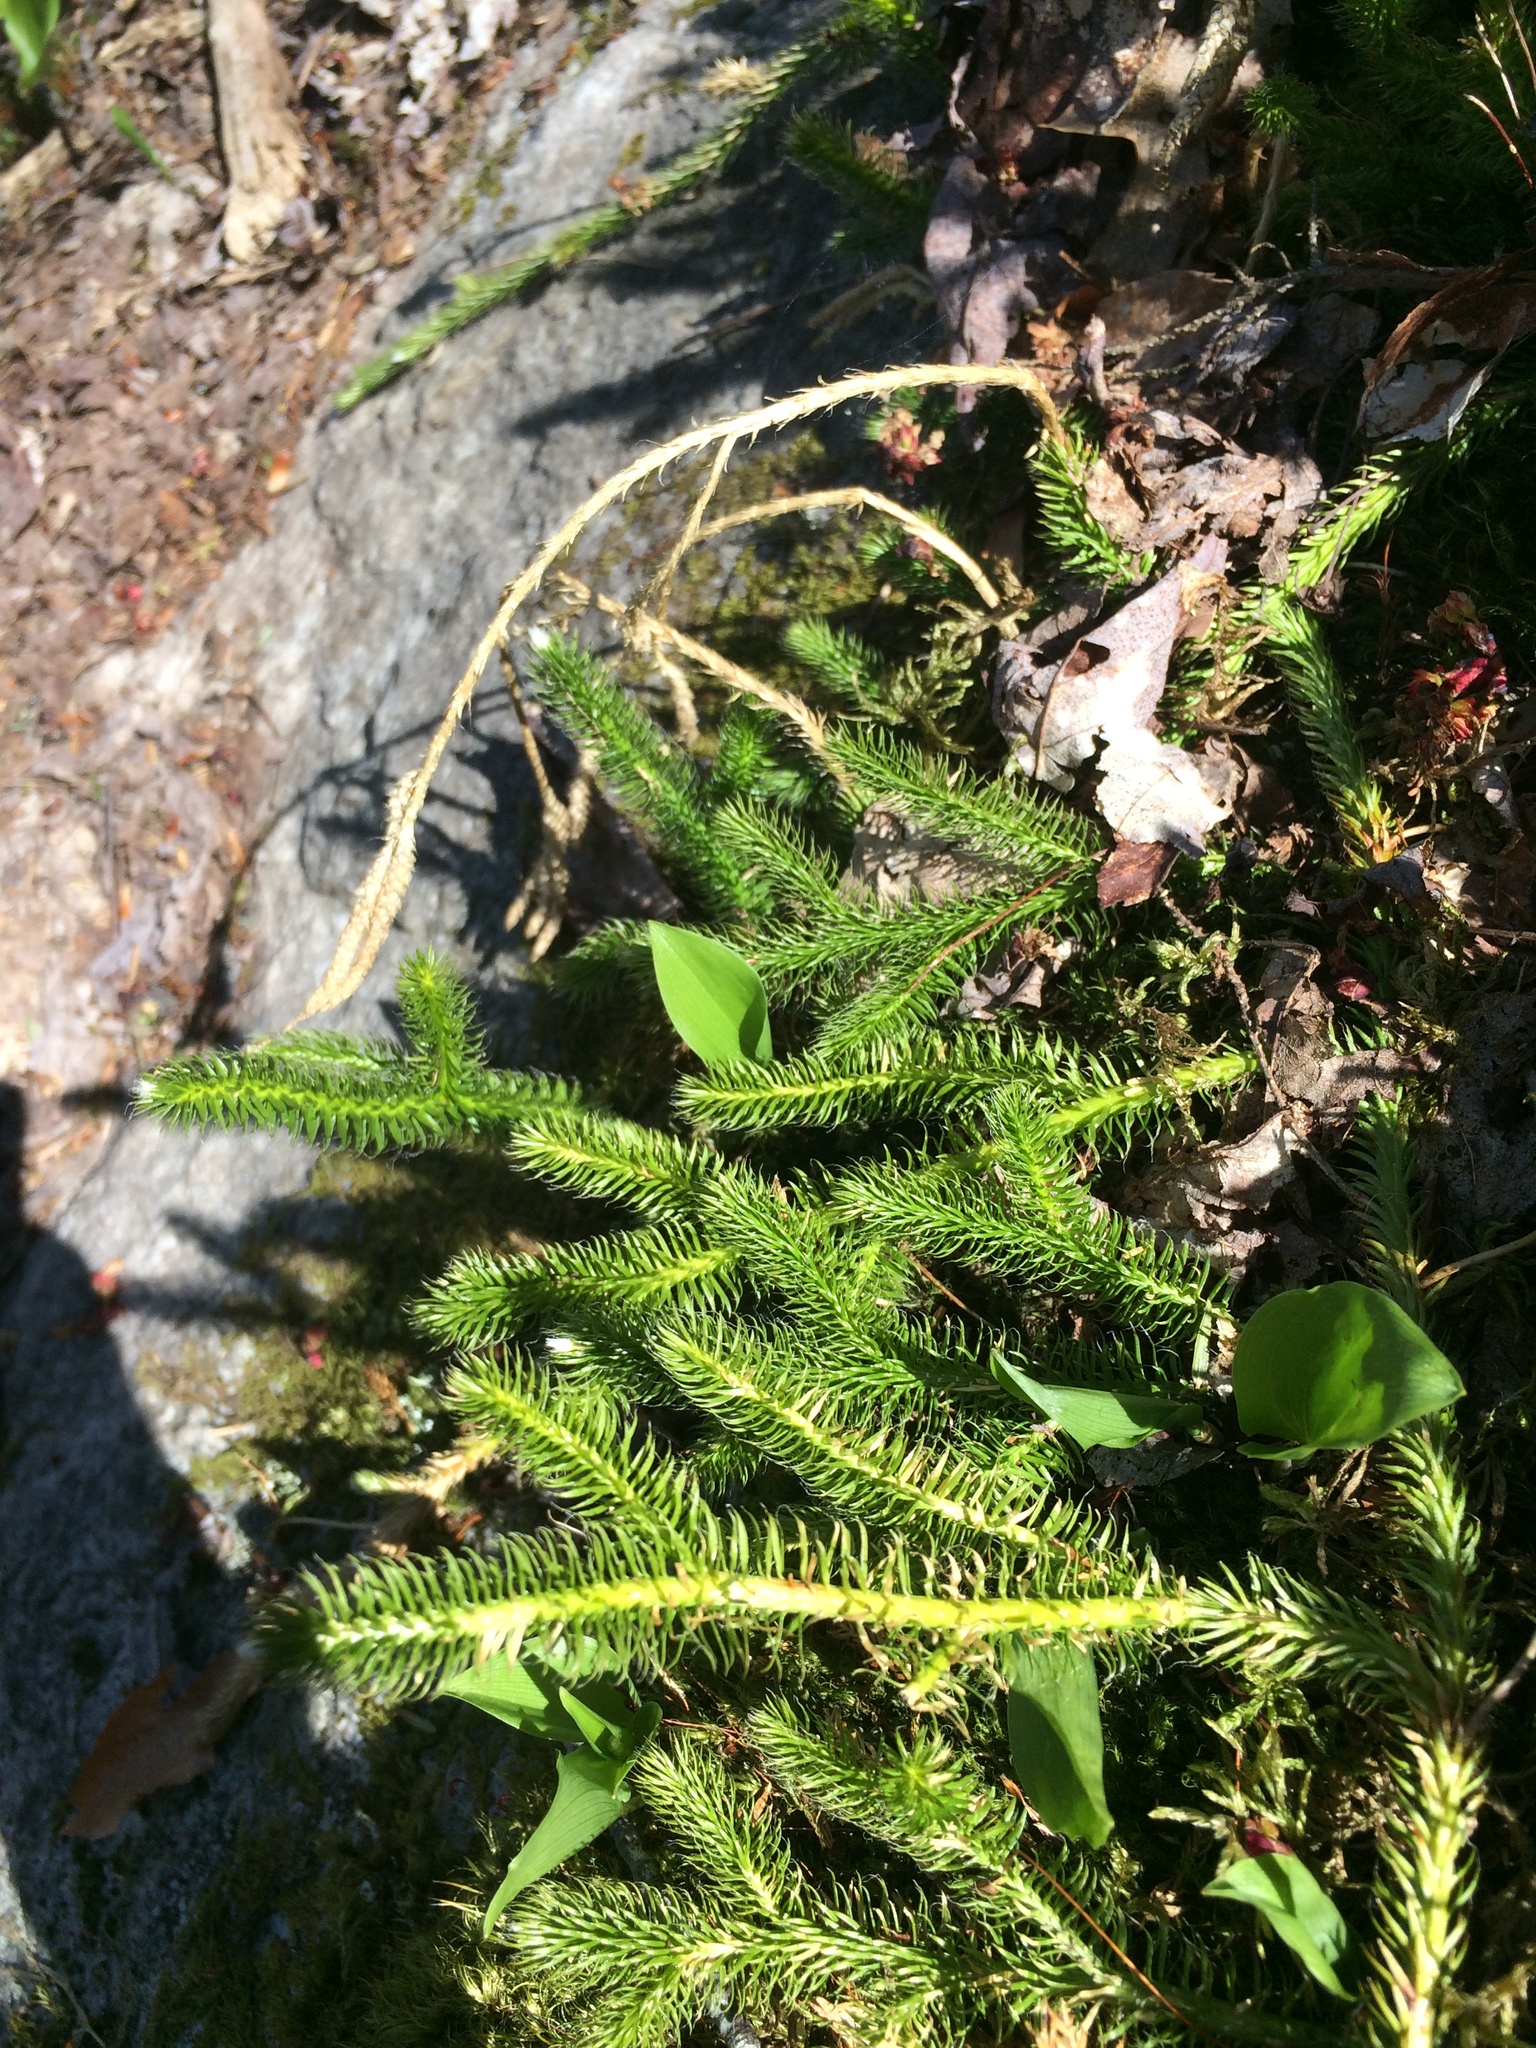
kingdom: Plantae
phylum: Tracheophyta
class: Lycopodiopsida
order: Lycopodiales
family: Lycopodiaceae
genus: Lycopodium
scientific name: Lycopodium clavatum
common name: Stag's-horn clubmoss
